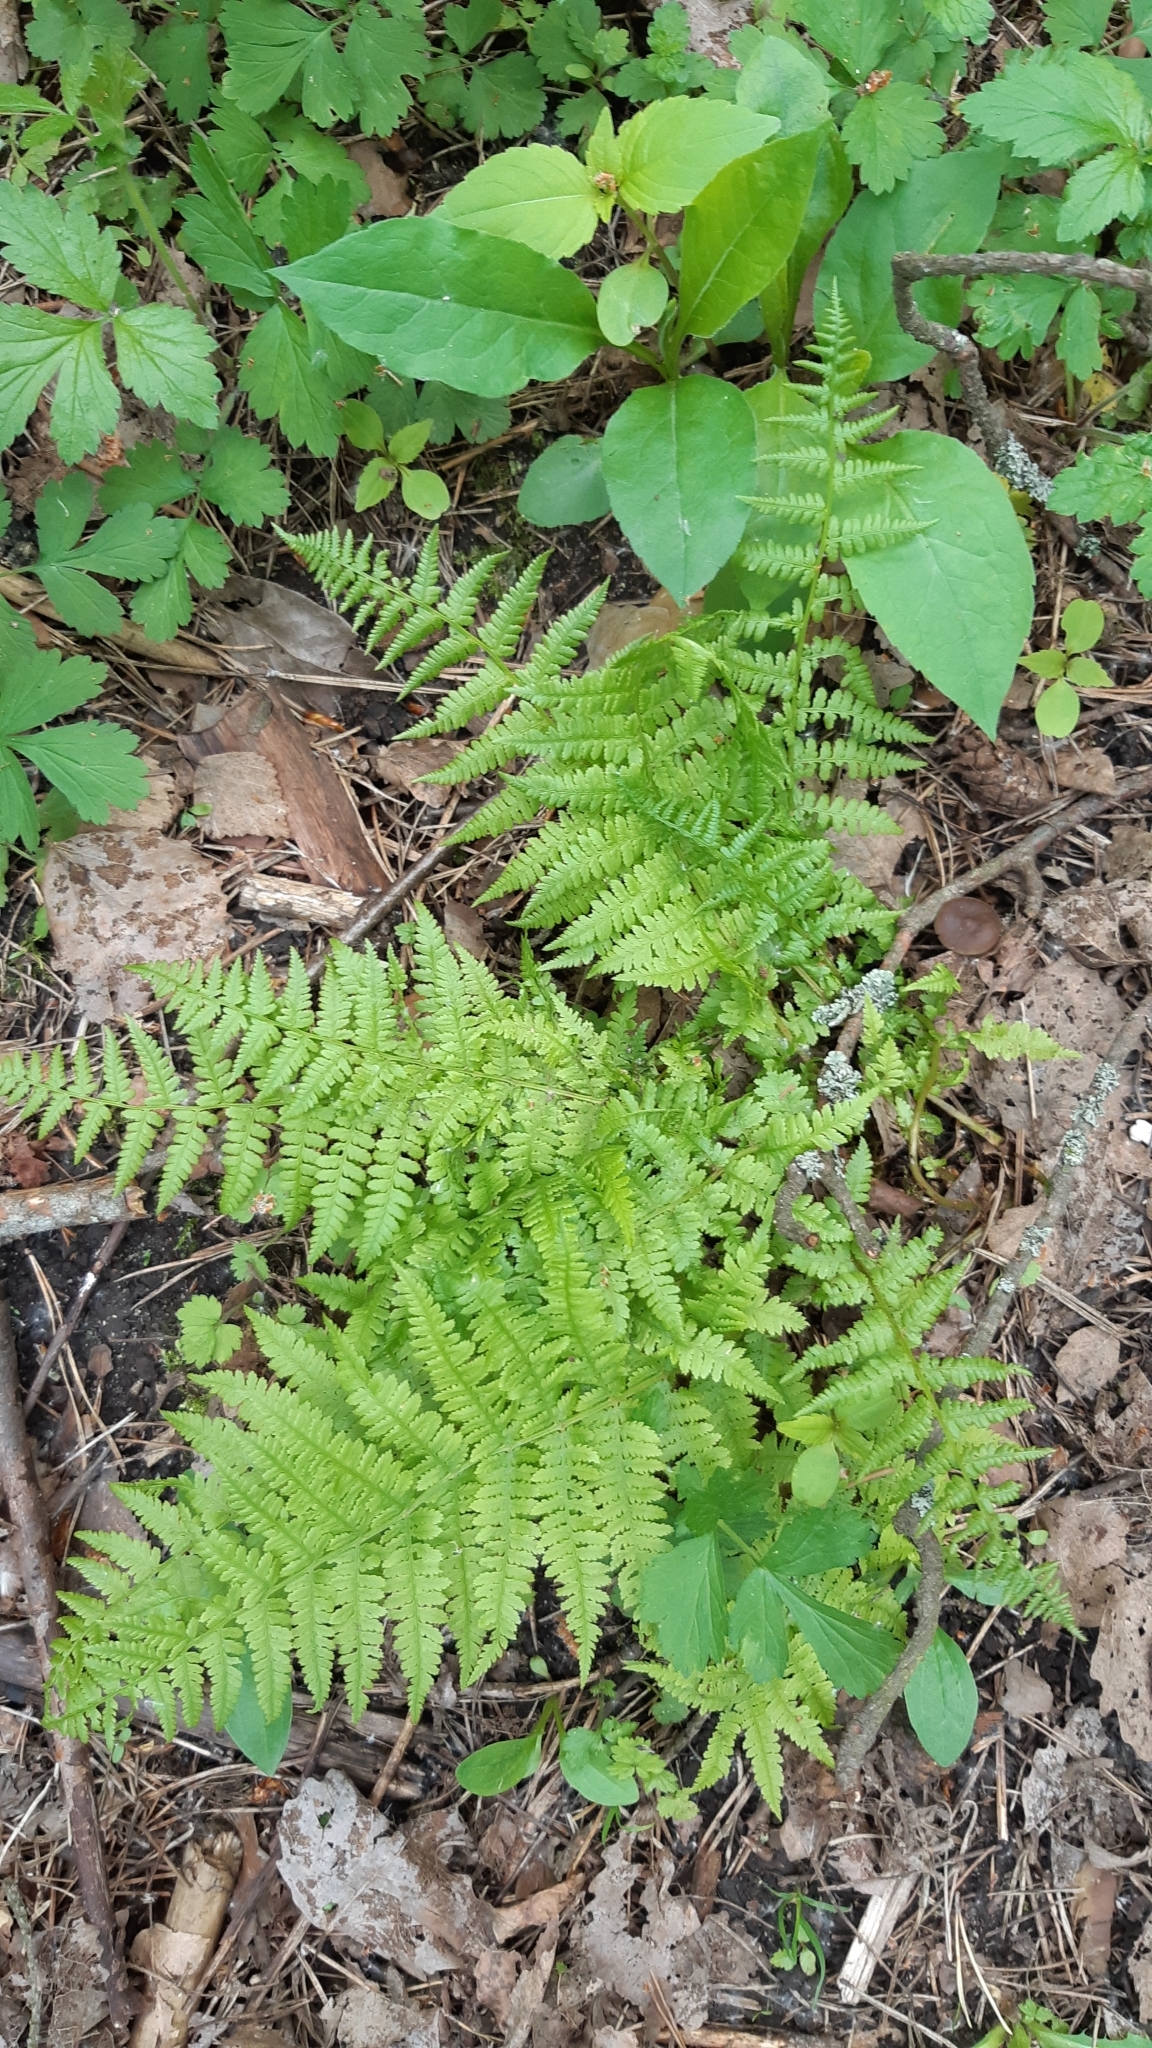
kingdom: Plantae
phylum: Tracheophyta
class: Polypodiopsida
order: Polypodiales
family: Athyriaceae
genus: Athyrium
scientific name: Athyrium filix-femina
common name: Lady fern
